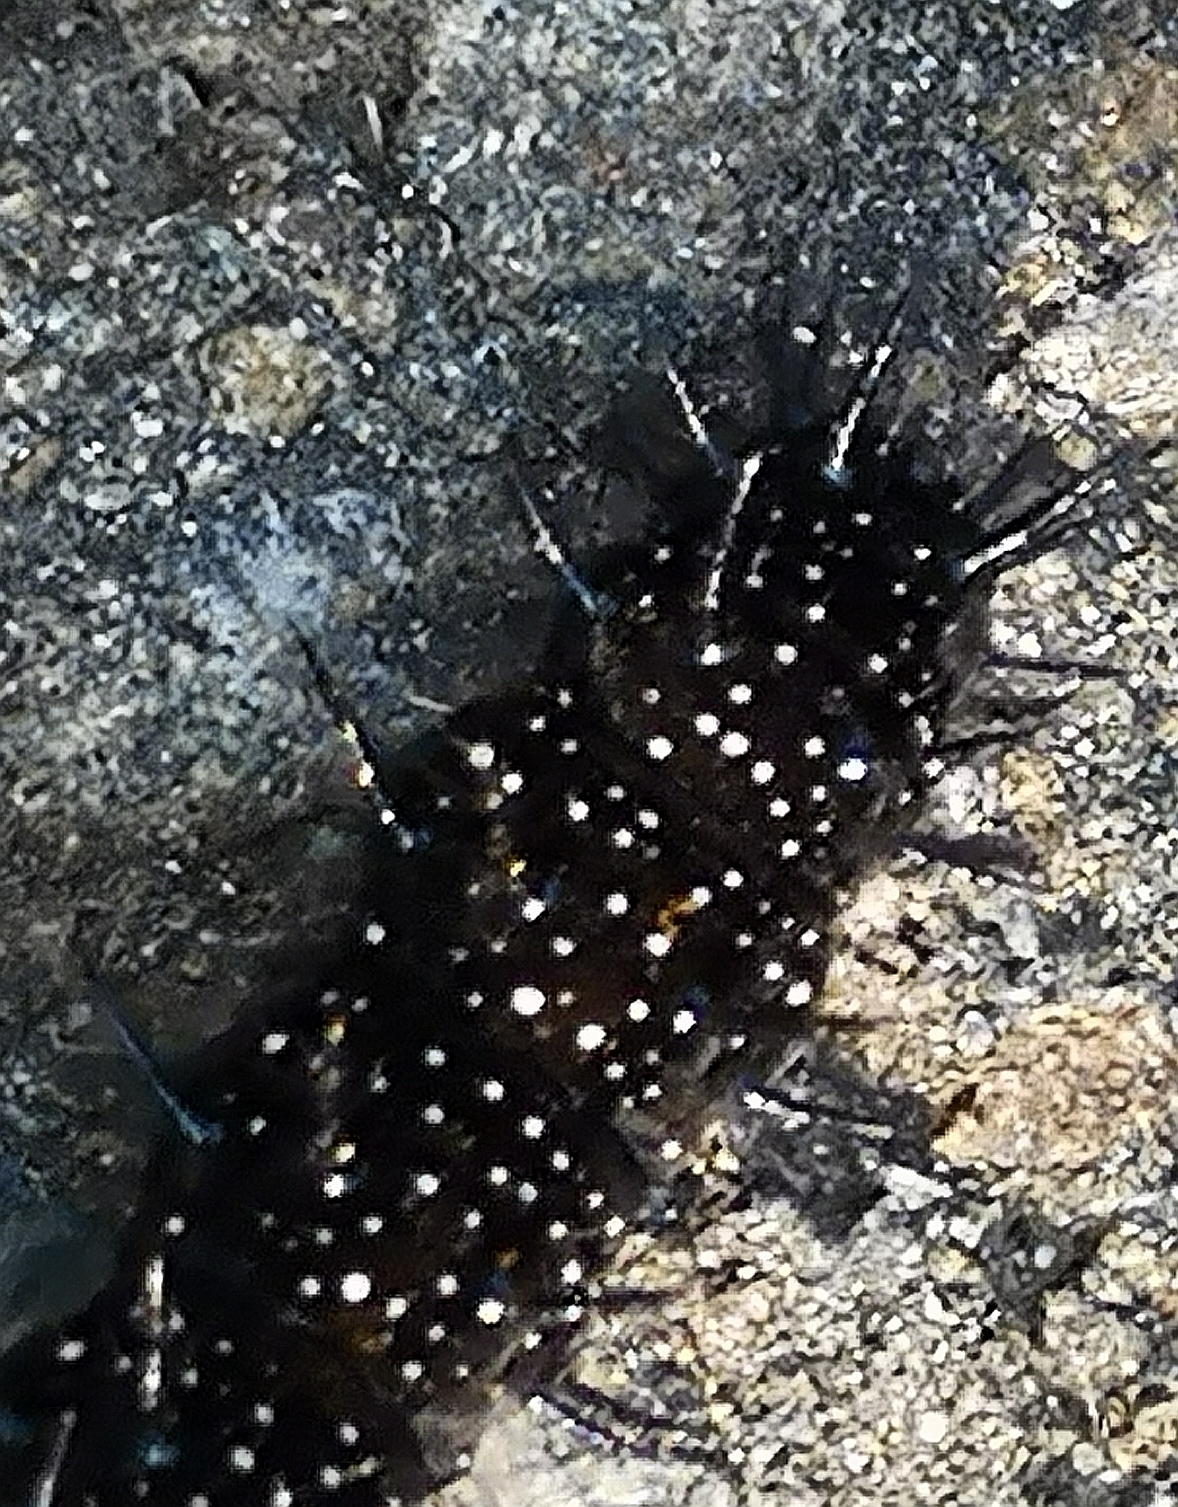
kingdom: Animalia
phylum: Arthropoda
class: Insecta
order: Lepidoptera
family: Nymphalidae
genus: Aglais
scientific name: Aglais io
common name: Peacock
